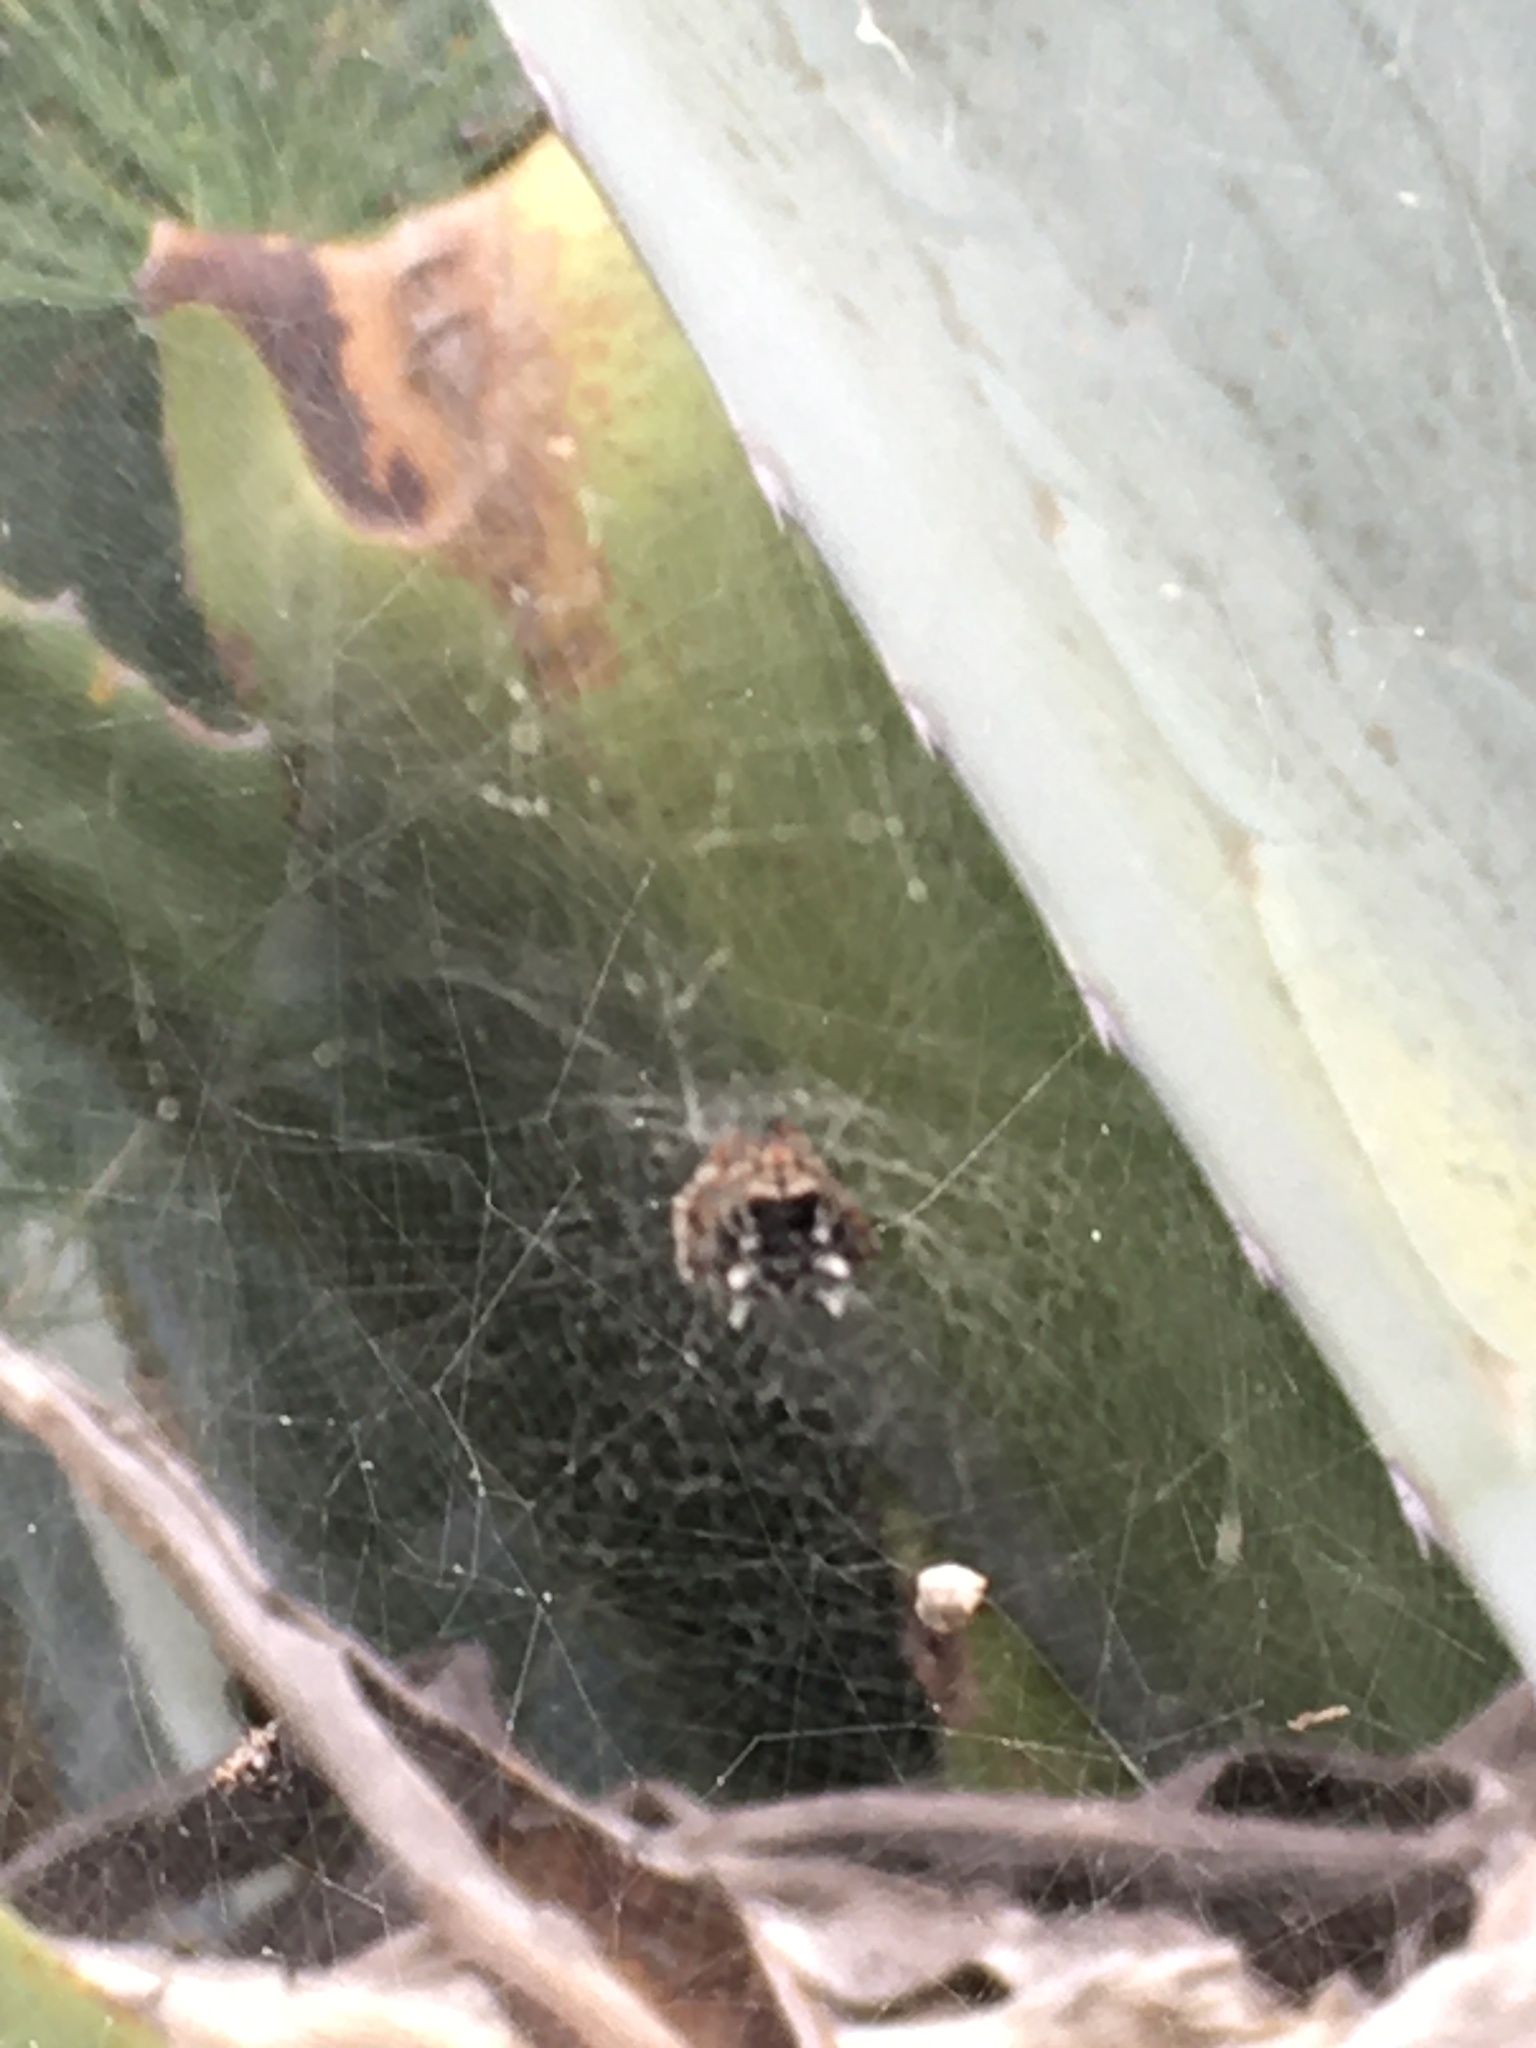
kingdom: Animalia
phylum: Arthropoda
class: Arachnida
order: Araneae
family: Araneidae
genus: Cyrtophora
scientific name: Cyrtophora citricola
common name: Orb weavers
